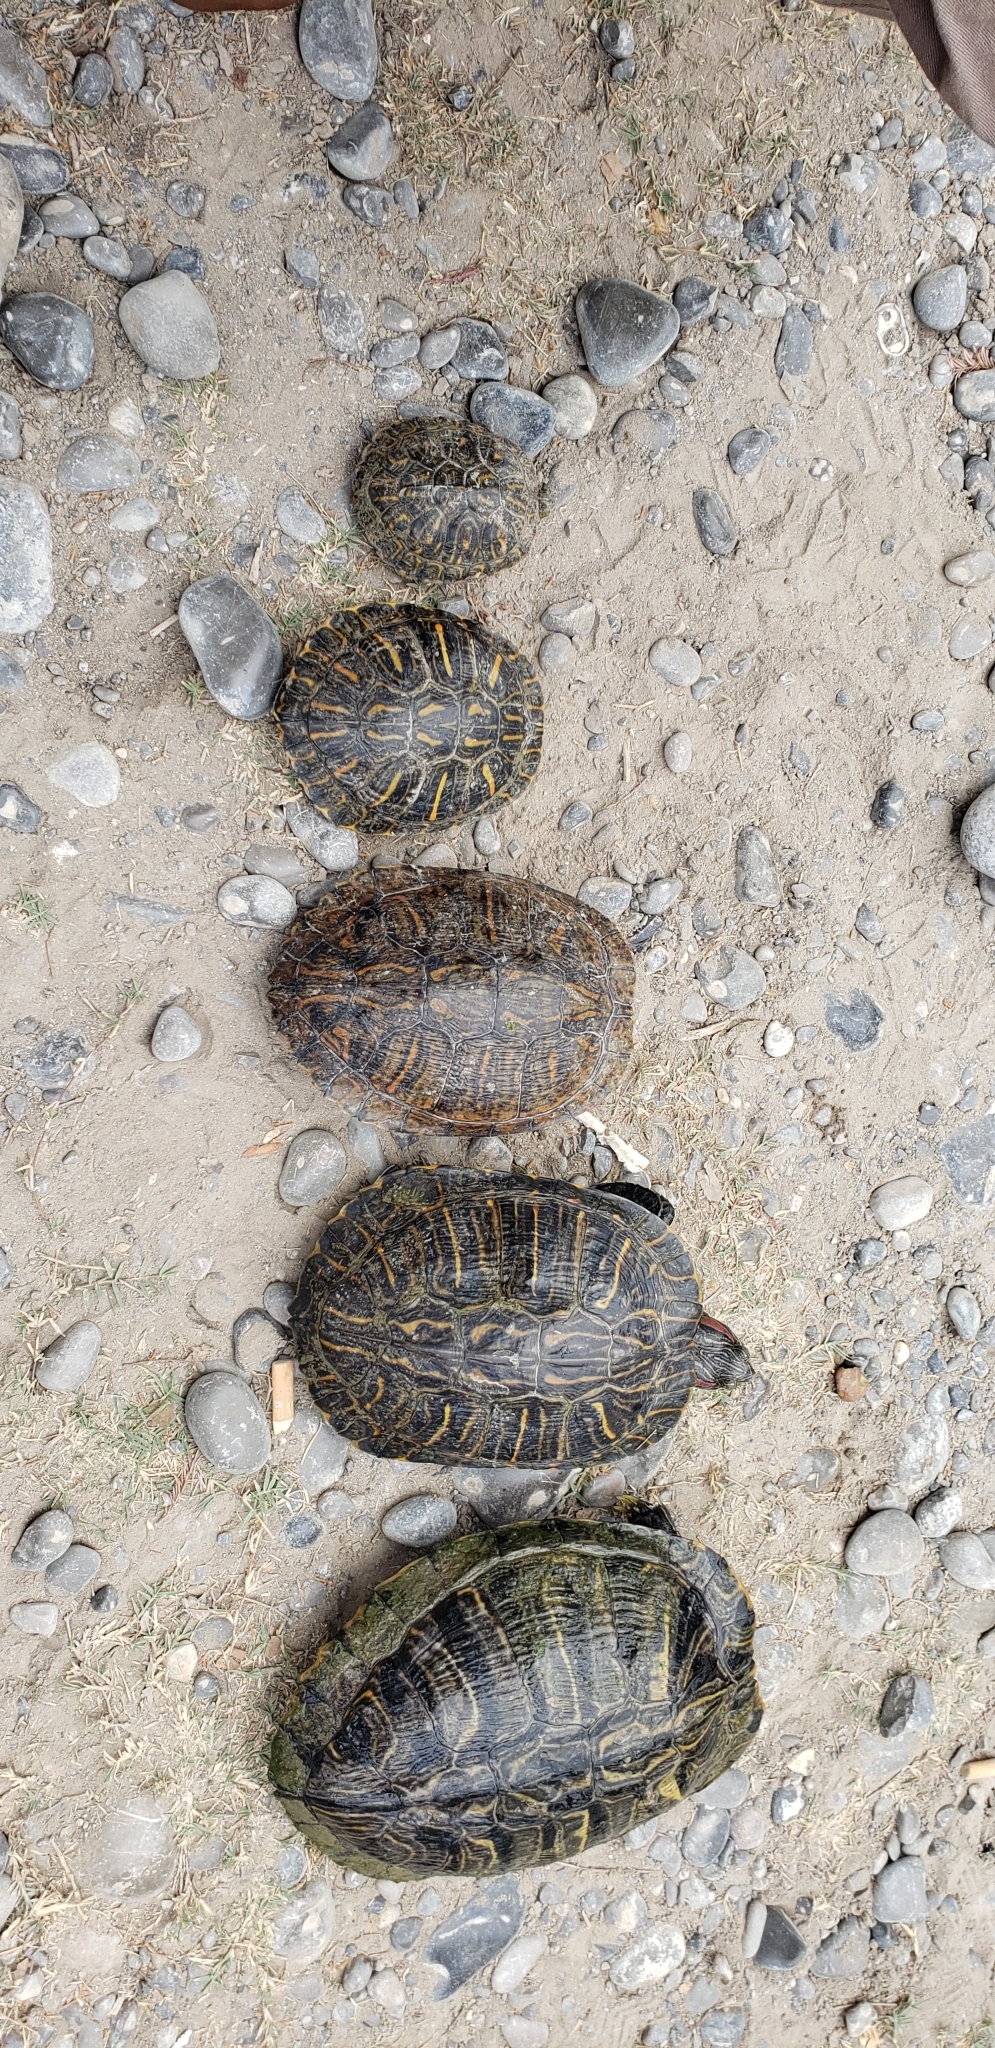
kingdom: Animalia
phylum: Chordata
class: Testudines
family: Emydidae
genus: Trachemys
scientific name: Trachemys scripta
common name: Slider
